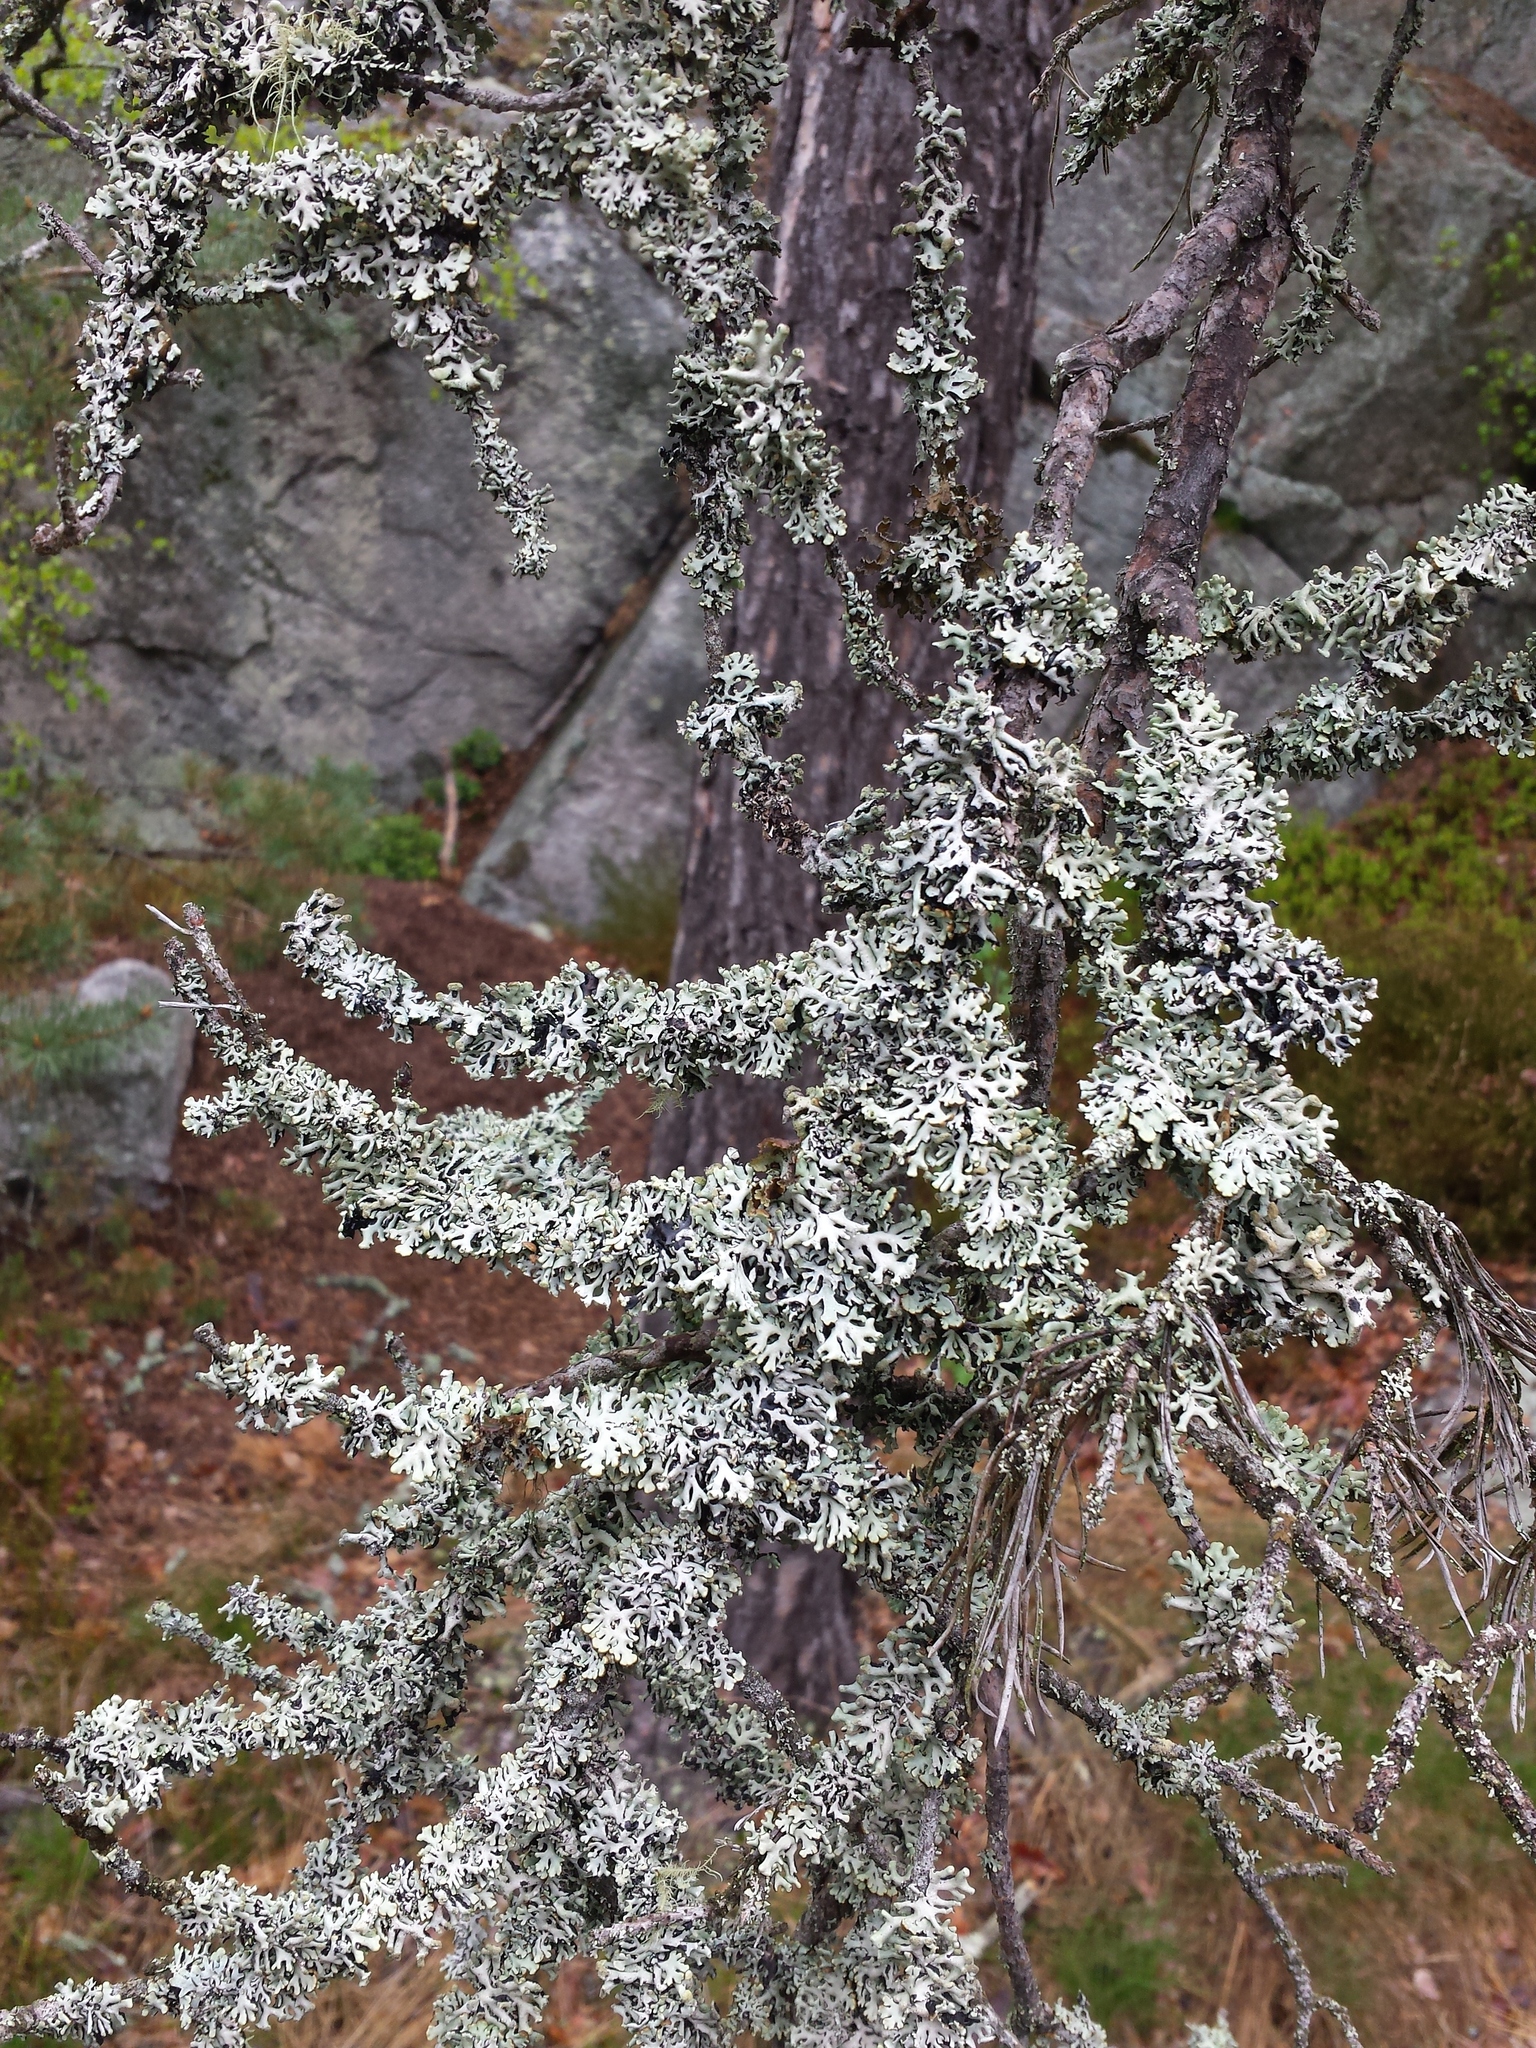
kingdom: Fungi
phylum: Ascomycota
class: Lecanoromycetes
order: Lecanorales
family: Parmeliaceae
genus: Hypogymnia
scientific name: Hypogymnia physodes
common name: Dark crottle
